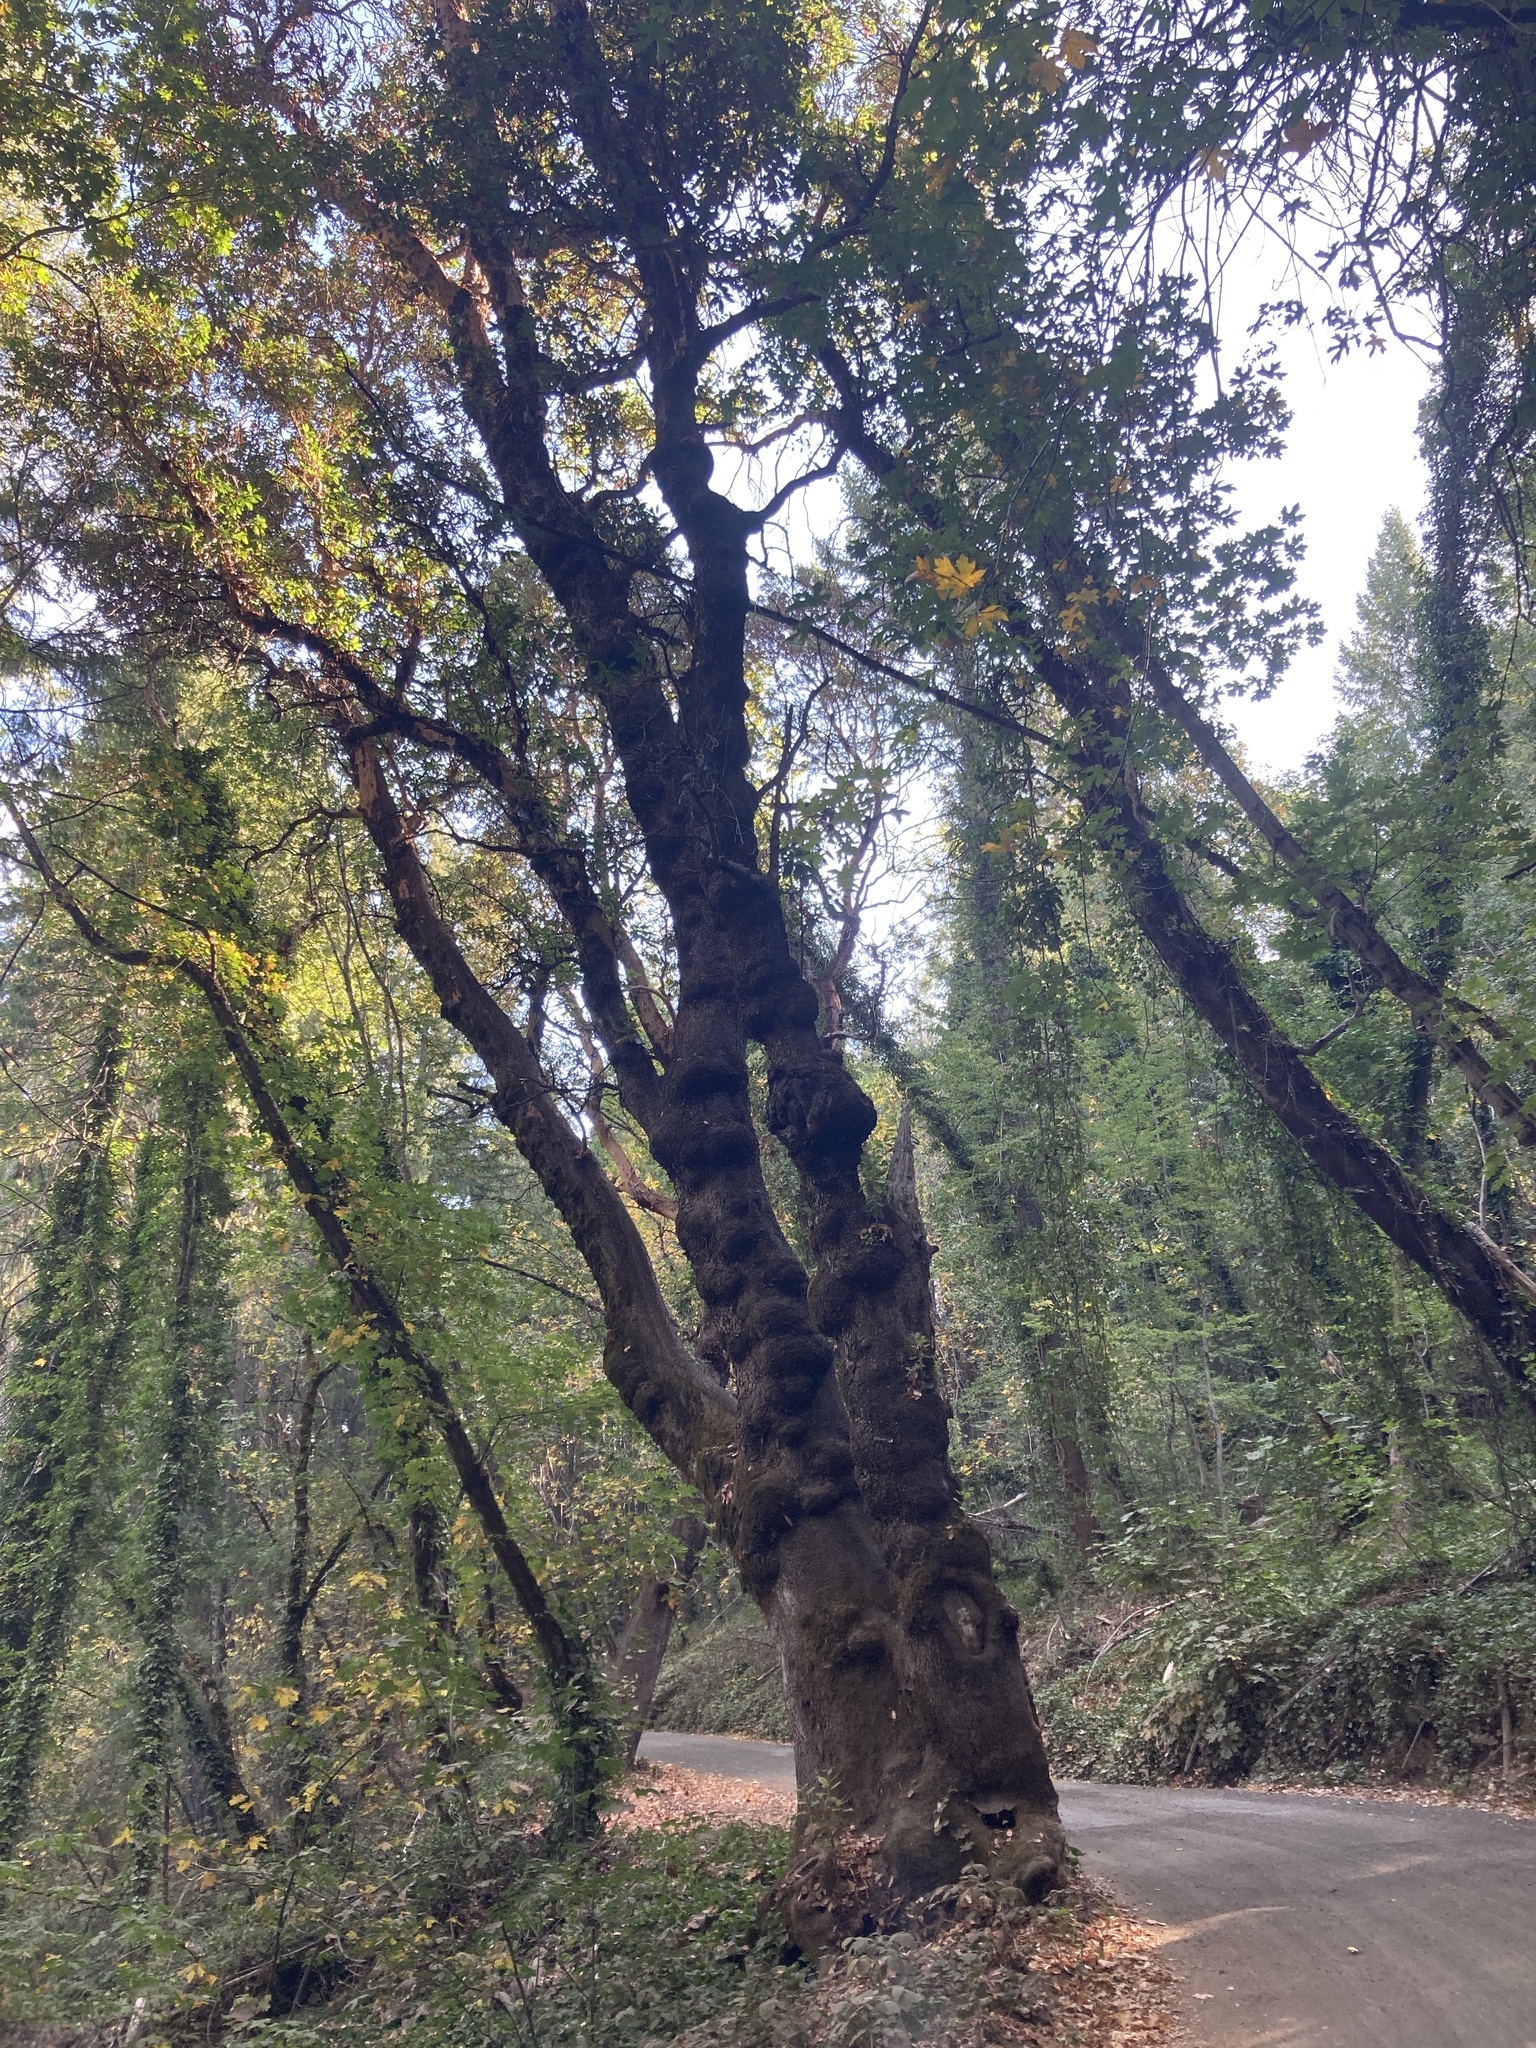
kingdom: Plantae
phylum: Tracheophyta
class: Magnoliopsida
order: Ericales
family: Ericaceae
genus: Arbutus
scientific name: Arbutus menziesii
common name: Pacific madrone
